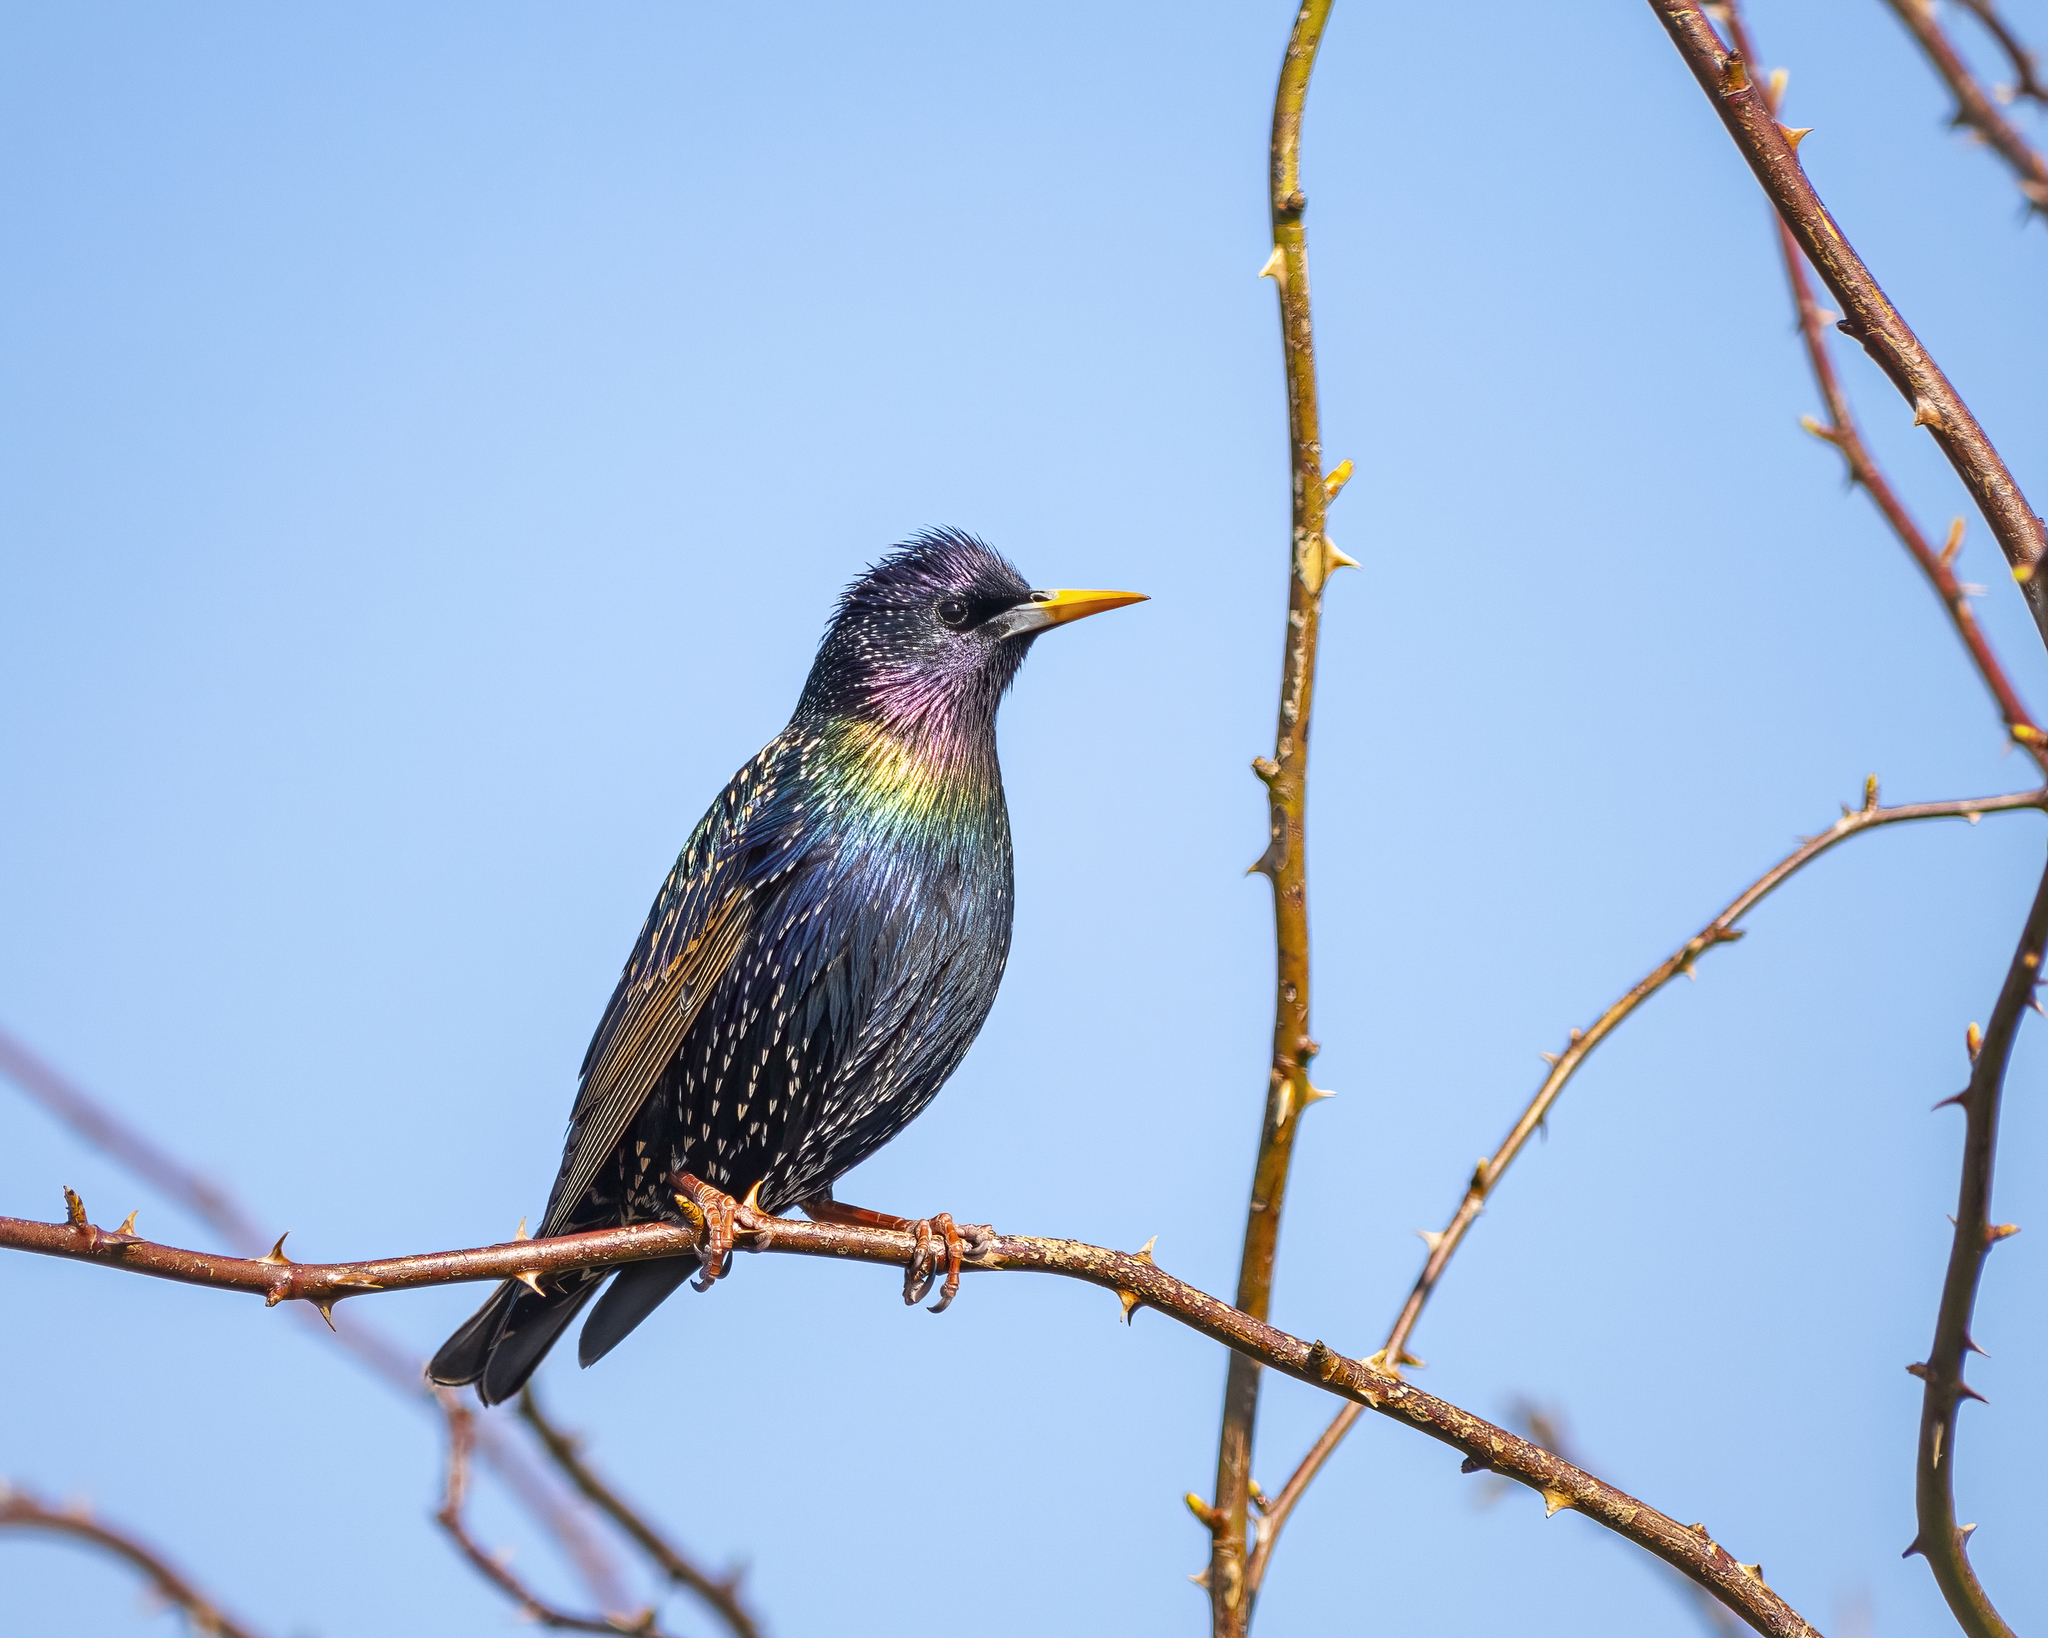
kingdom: Animalia
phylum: Chordata
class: Aves
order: Passeriformes
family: Sturnidae
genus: Sturnus
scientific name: Sturnus vulgaris
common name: Common starling
